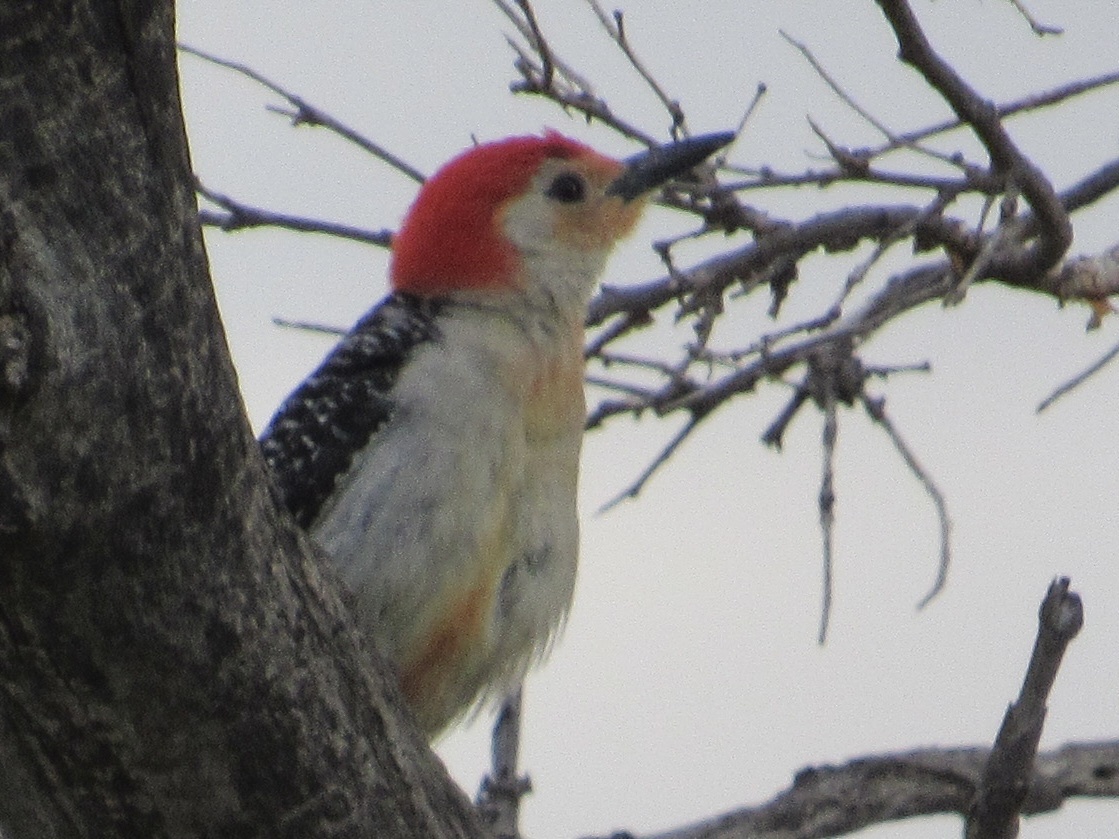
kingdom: Animalia
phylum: Chordata
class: Aves
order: Piciformes
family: Picidae
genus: Melanerpes
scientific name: Melanerpes carolinus
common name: Red-bellied woodpecker
